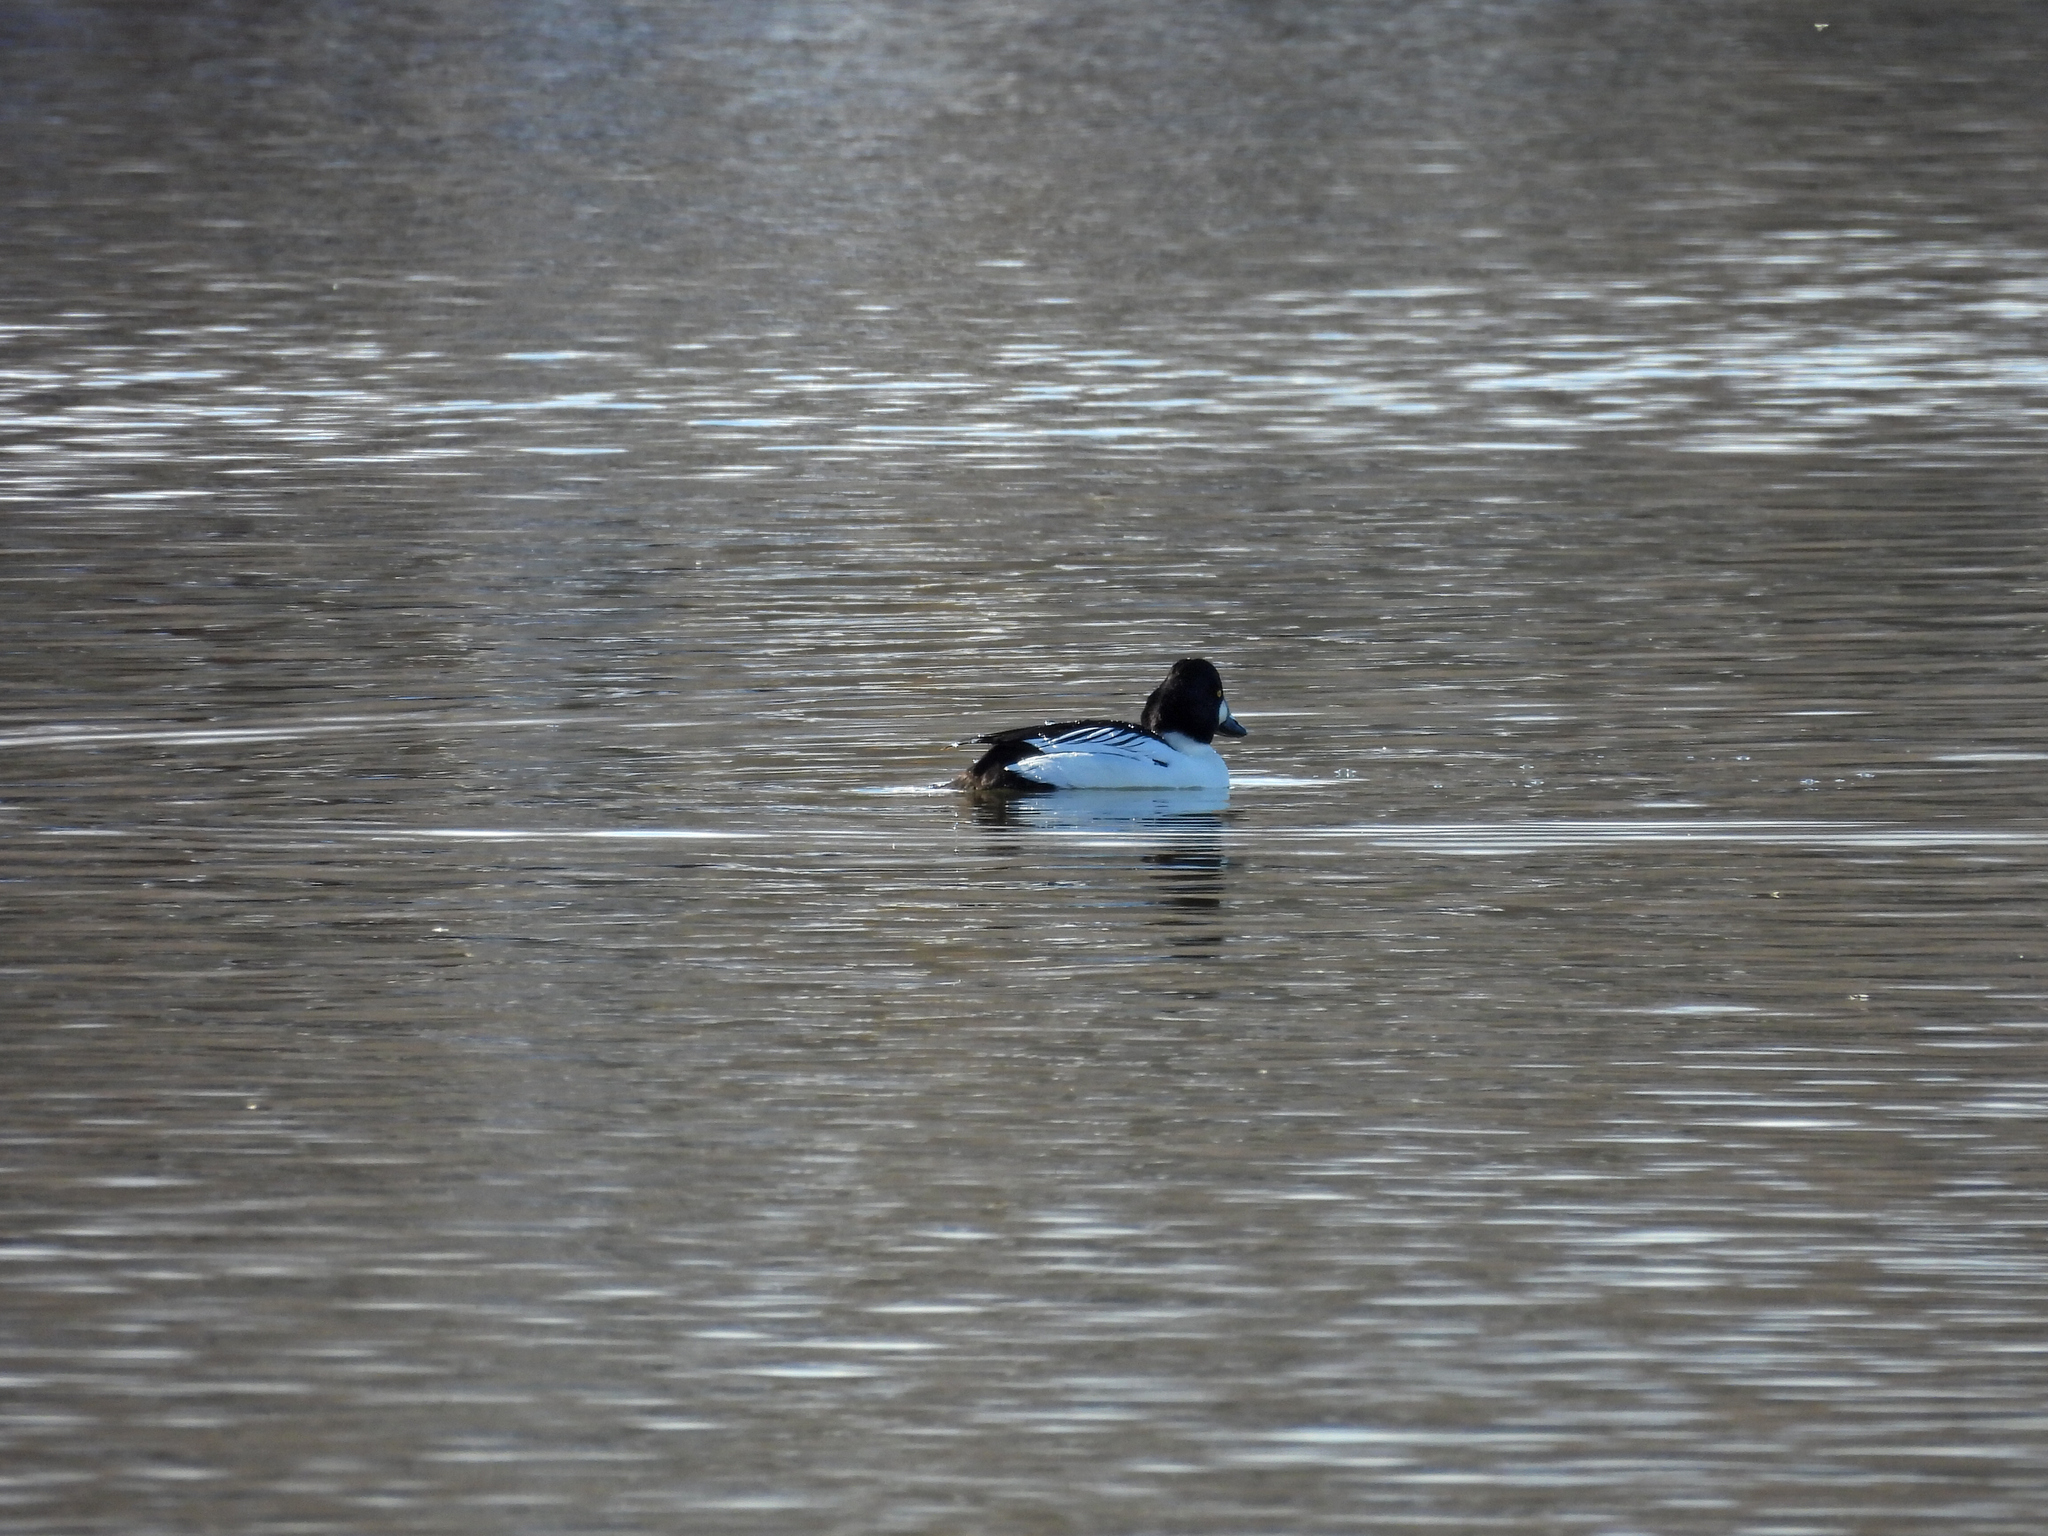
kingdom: Animalia
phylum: Chordata
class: Aves
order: Anseriformes
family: Anatidae
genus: Bucephala
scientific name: Bucephala clangula
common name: Common goldeneye
